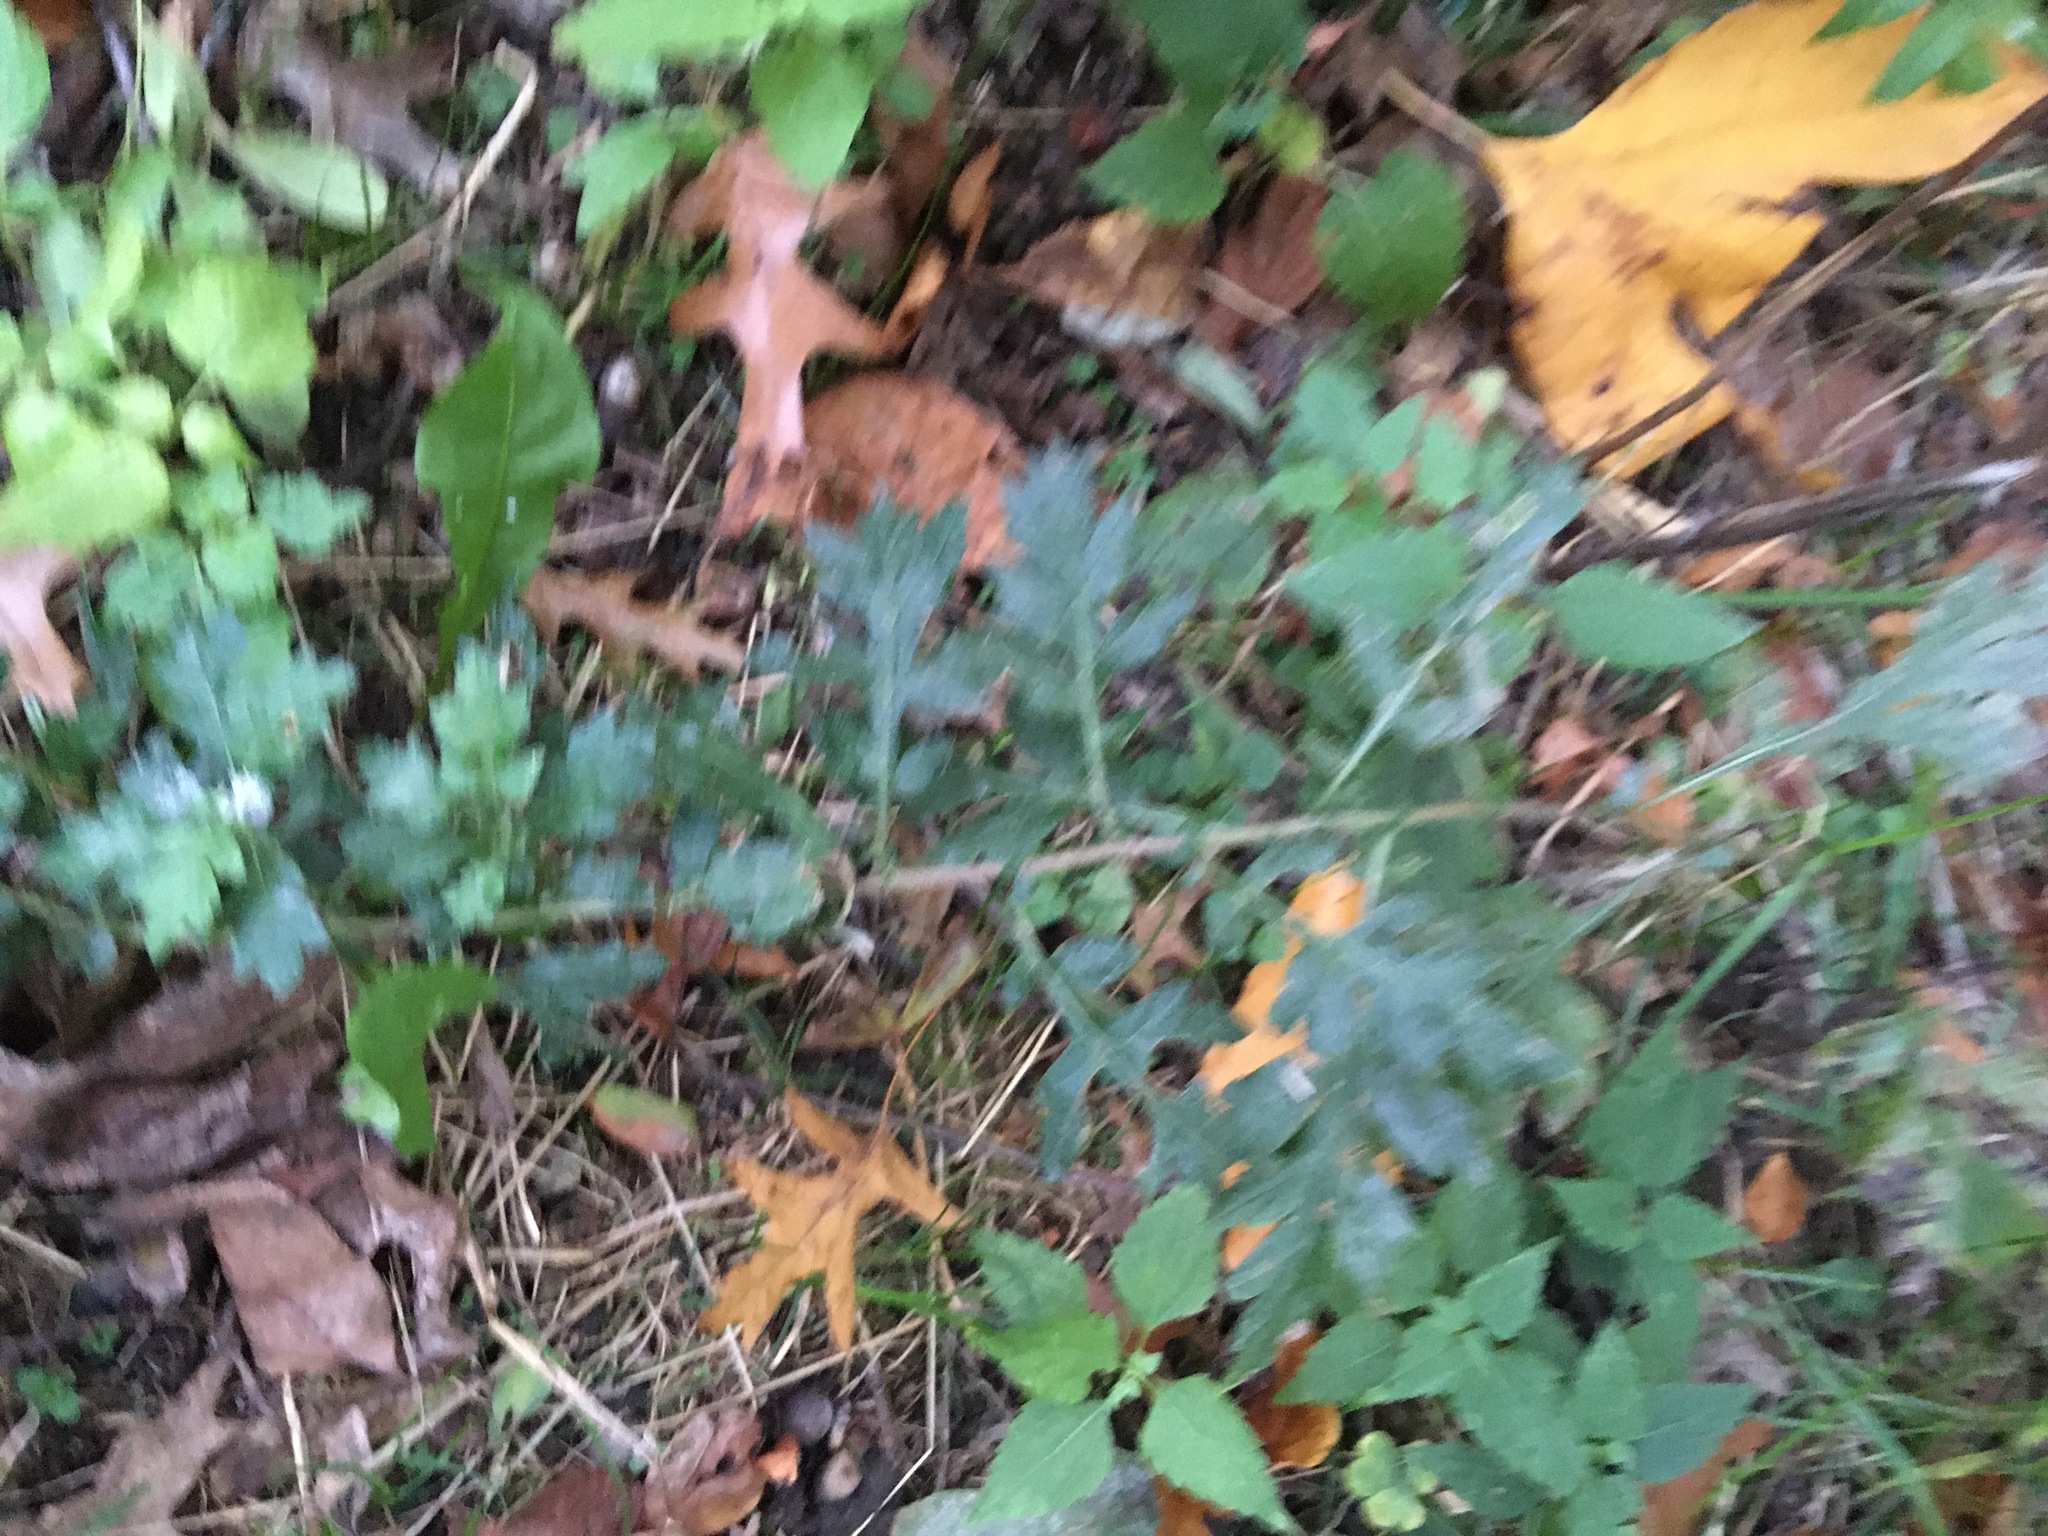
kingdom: Plantae
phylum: Tracheophyta
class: Magnoliopsida
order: Asterales
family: Asteraceae
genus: Artemisia
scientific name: Artemisia vulgaris
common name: Mugwort
